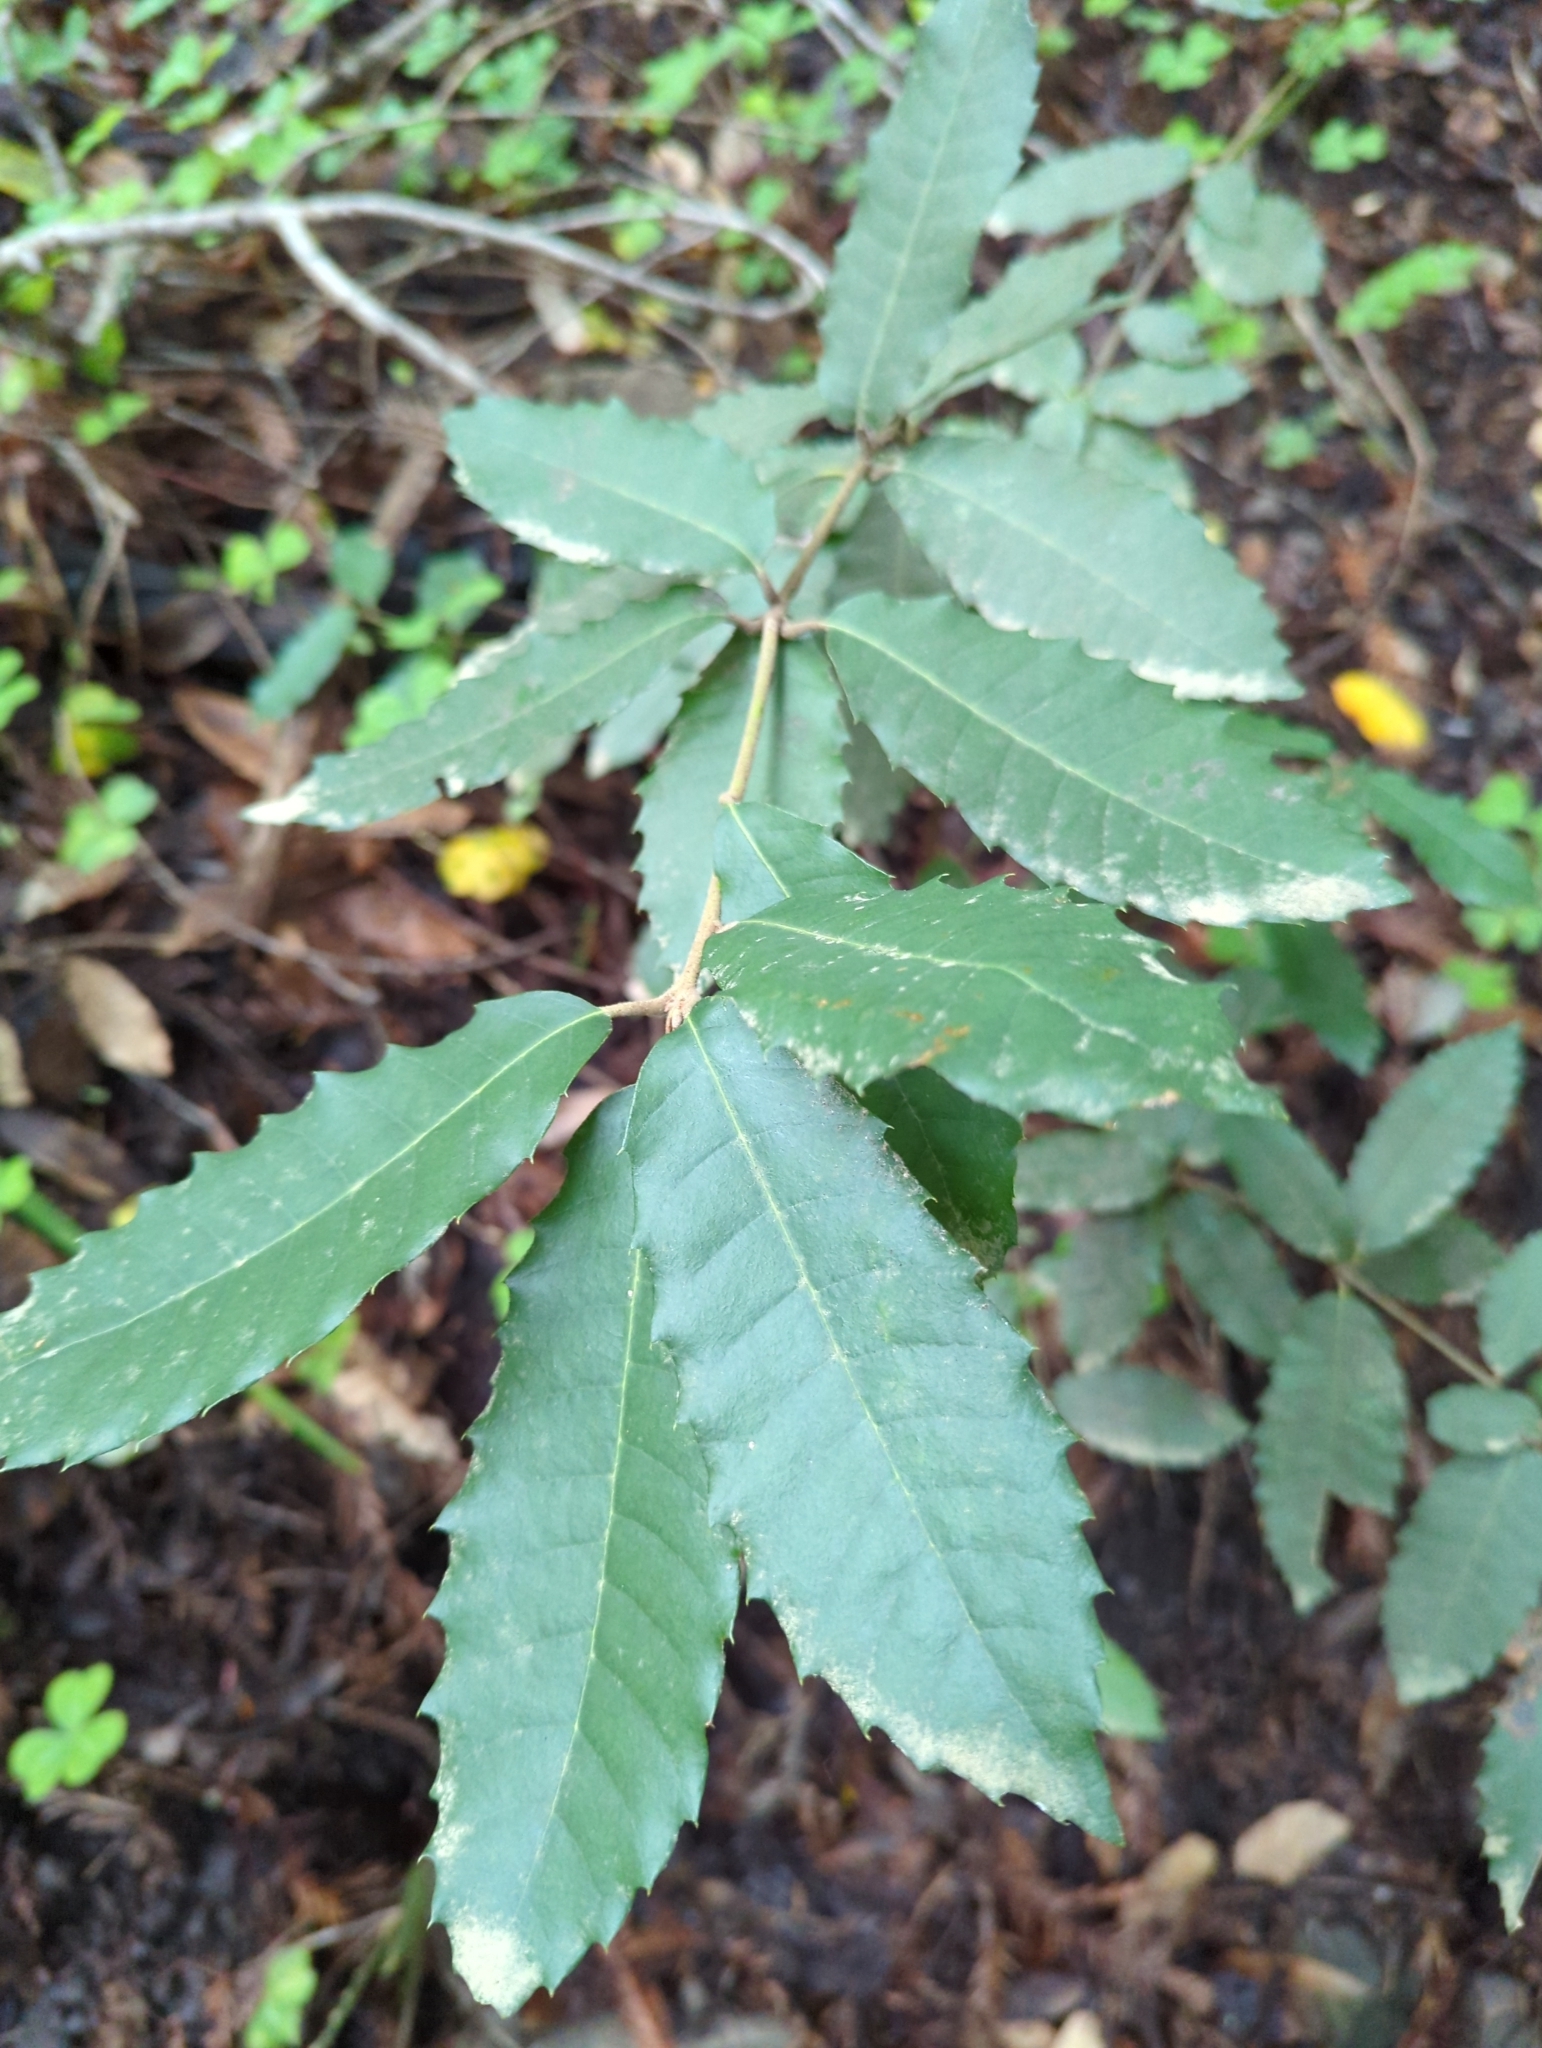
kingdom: Plantae
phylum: Tracheophyta
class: Magnoliopsida
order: Fagales
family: Fagaceae
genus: Notholithocarpus
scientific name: Notholithocarpus densiflorus
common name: Tan bark oak
